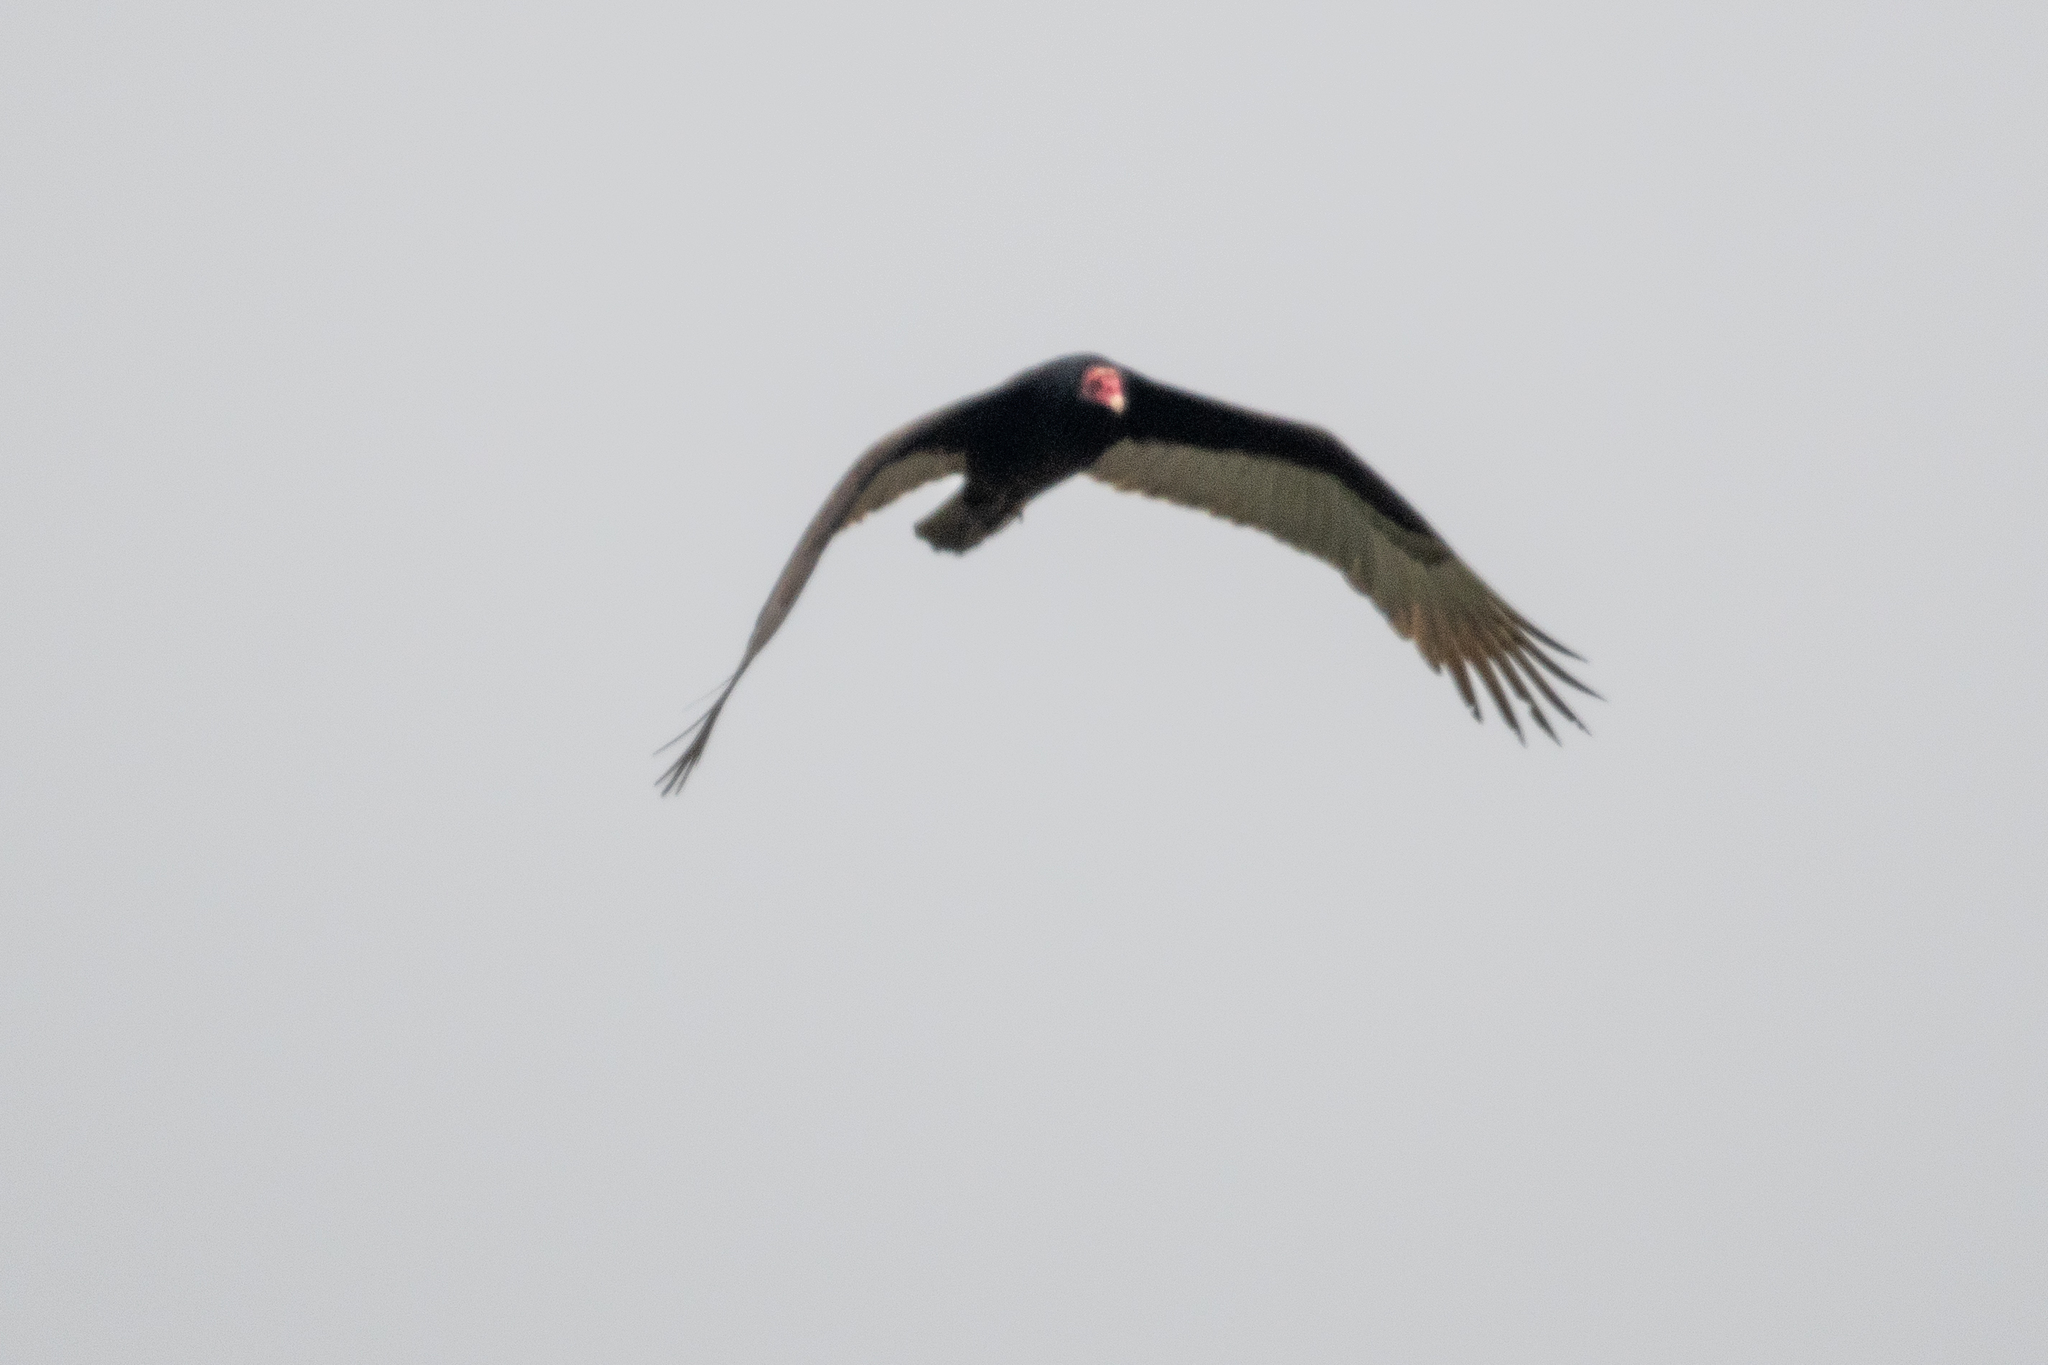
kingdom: Animalia
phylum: Chordata
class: Aves
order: Accipitriformes
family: Cathartidae
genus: Cathartes
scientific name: Cathartes aura
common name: Turkey vulture
